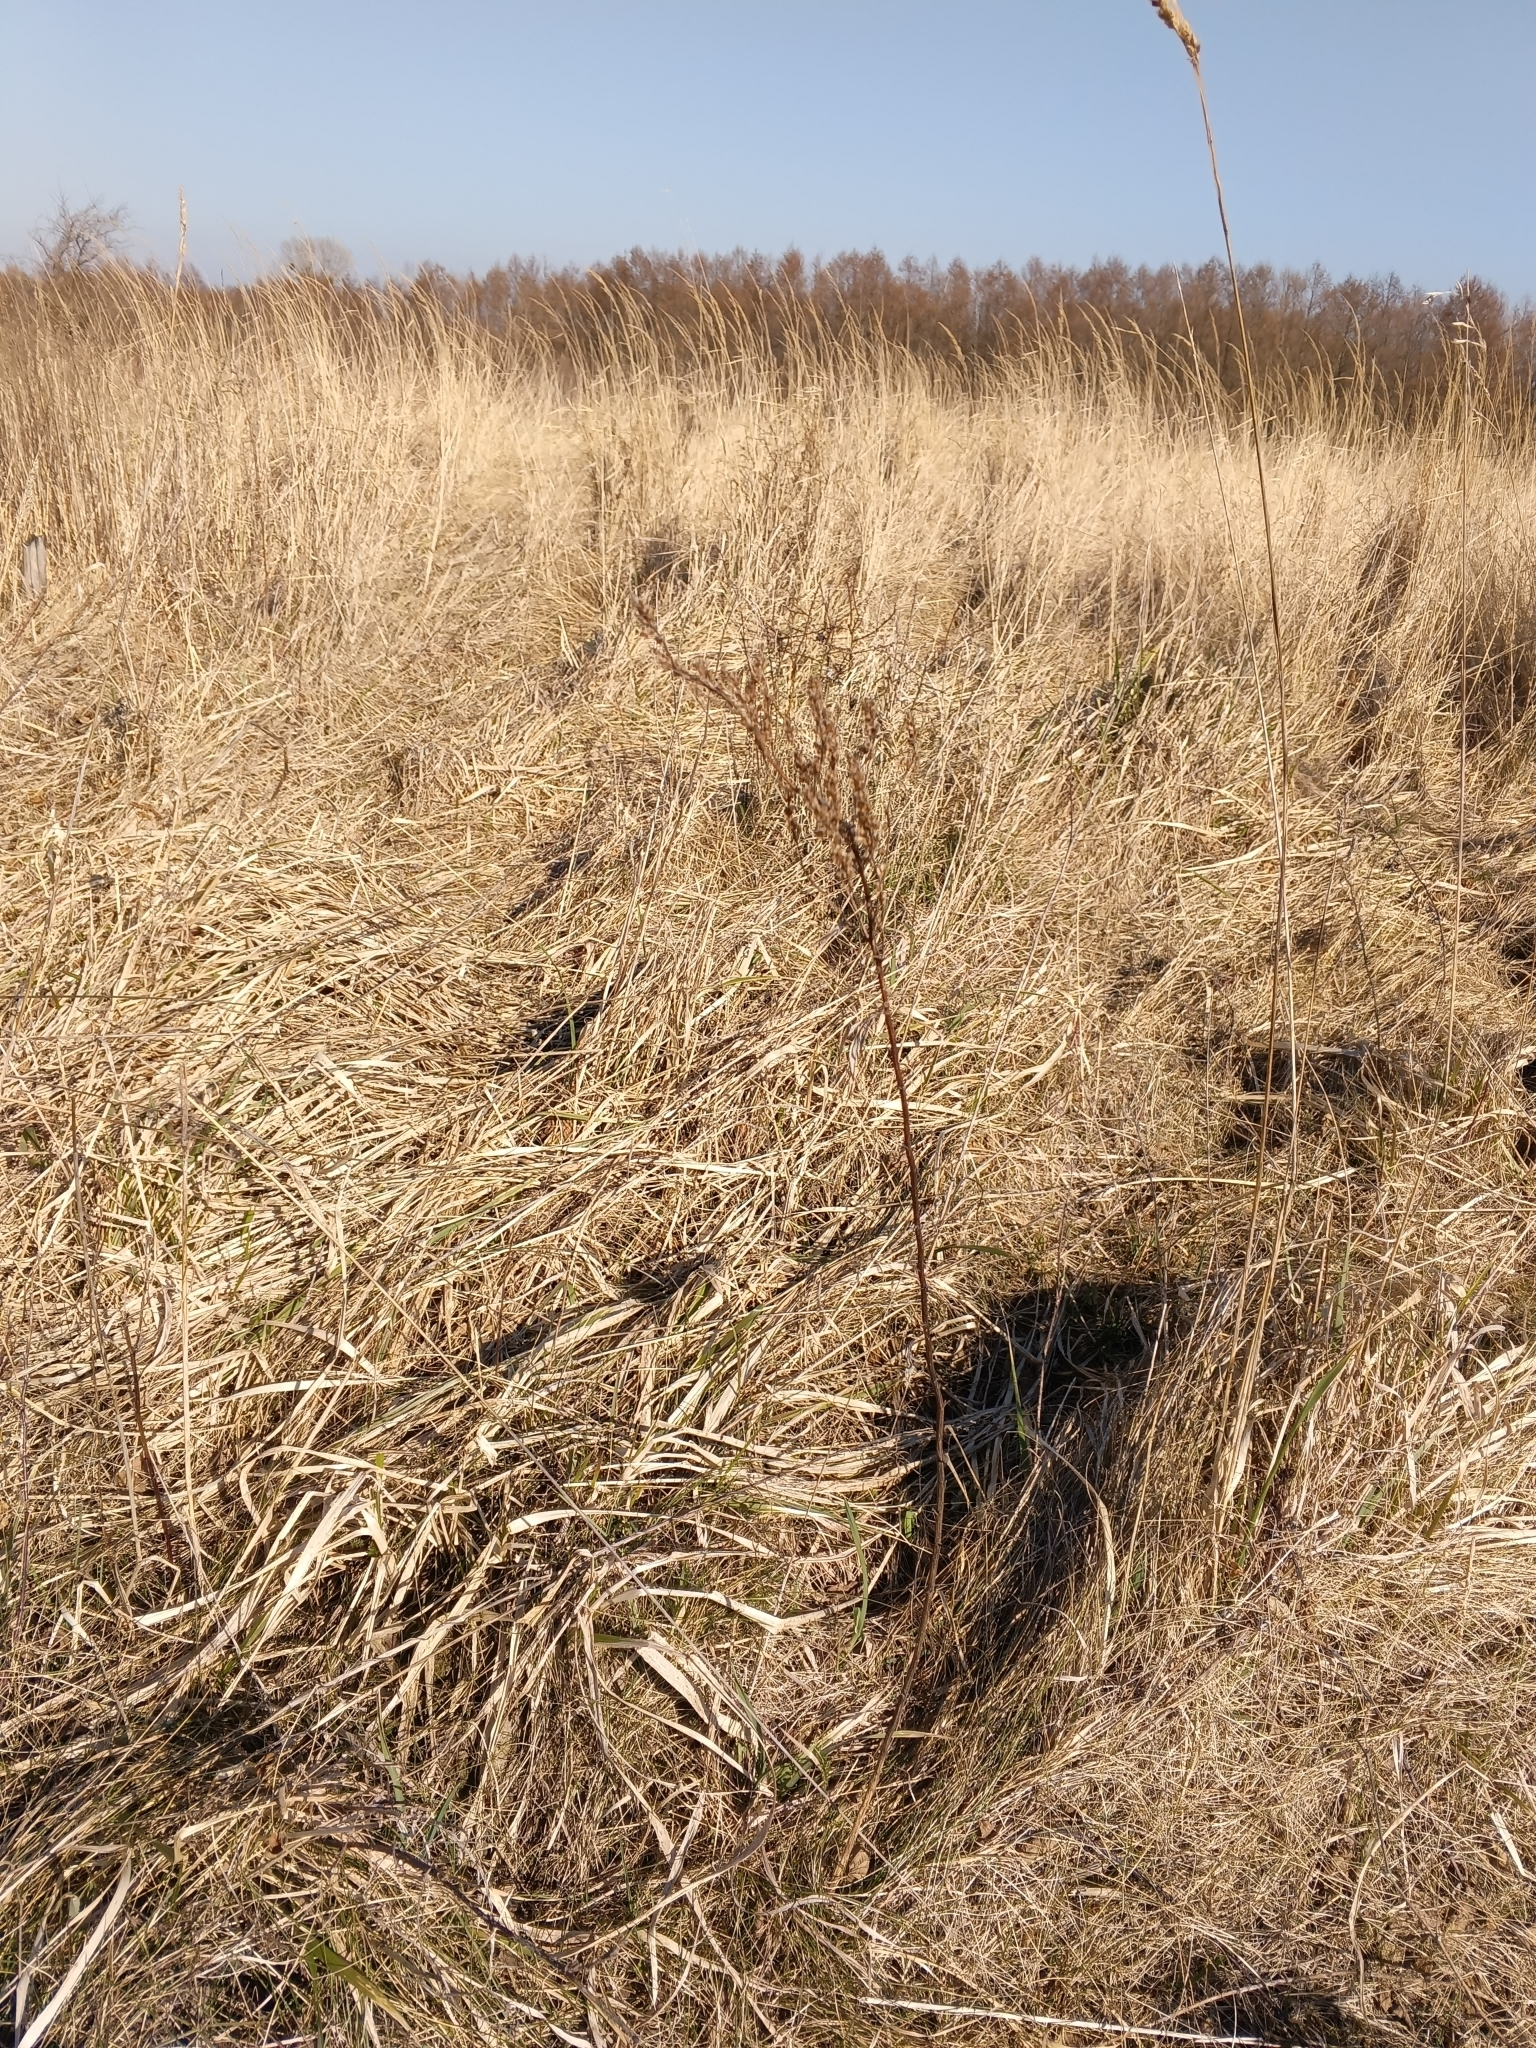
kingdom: Plantae
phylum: Tracheophyta
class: Magnoliopsida
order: Asterales
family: Asteraceae
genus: Artemisia
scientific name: Artemisia vulgaris
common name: Mugwort
